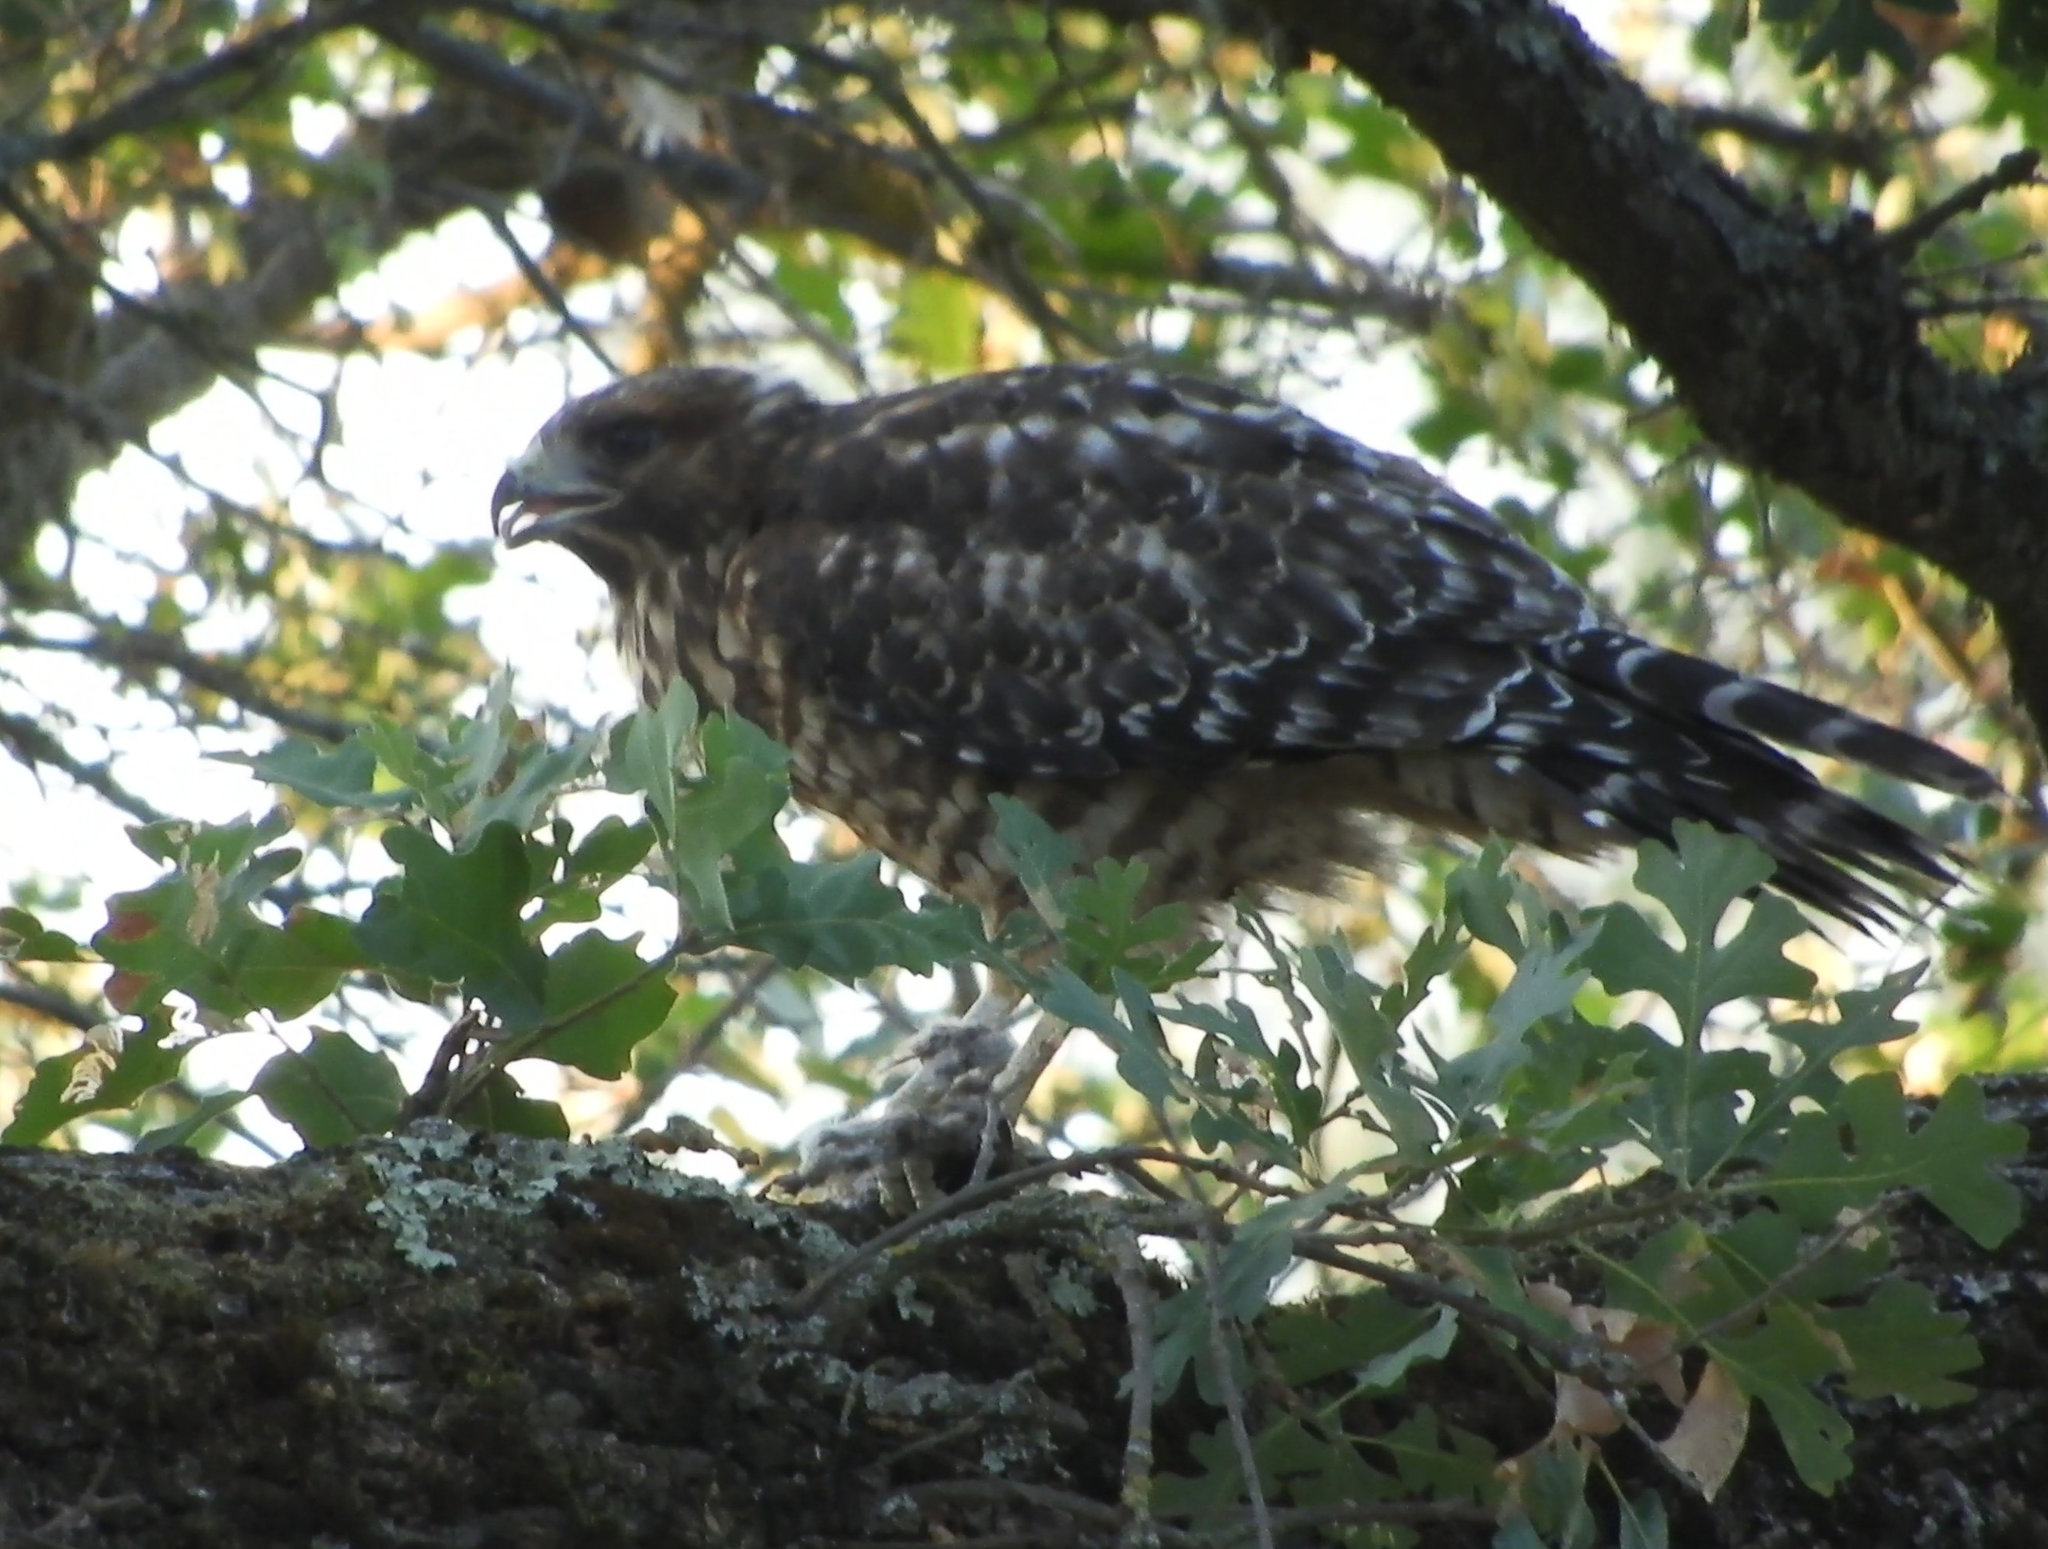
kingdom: Animalia
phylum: Chordata
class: Aves
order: Accipitriformes
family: Accipitridae
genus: Buteo
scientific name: Buteo lineatus
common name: Red-shouldered hawk
